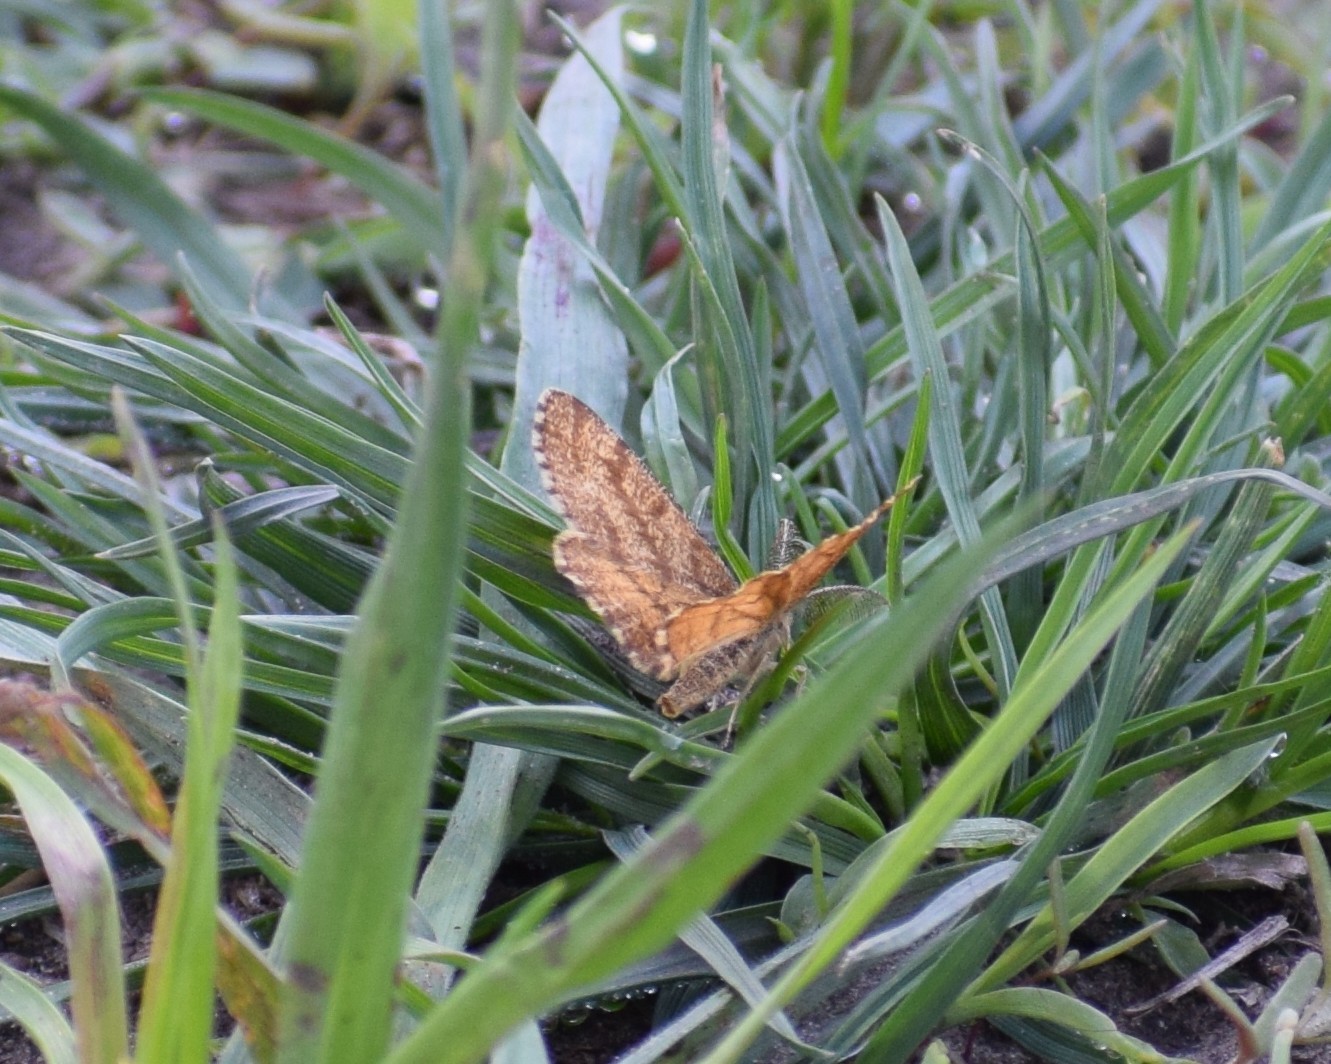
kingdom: Animalia
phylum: Arthropoda
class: Insecta
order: Lepidoptera
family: Geometridae
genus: Ematurga
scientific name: Ematurga atomaria
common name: Common heath
